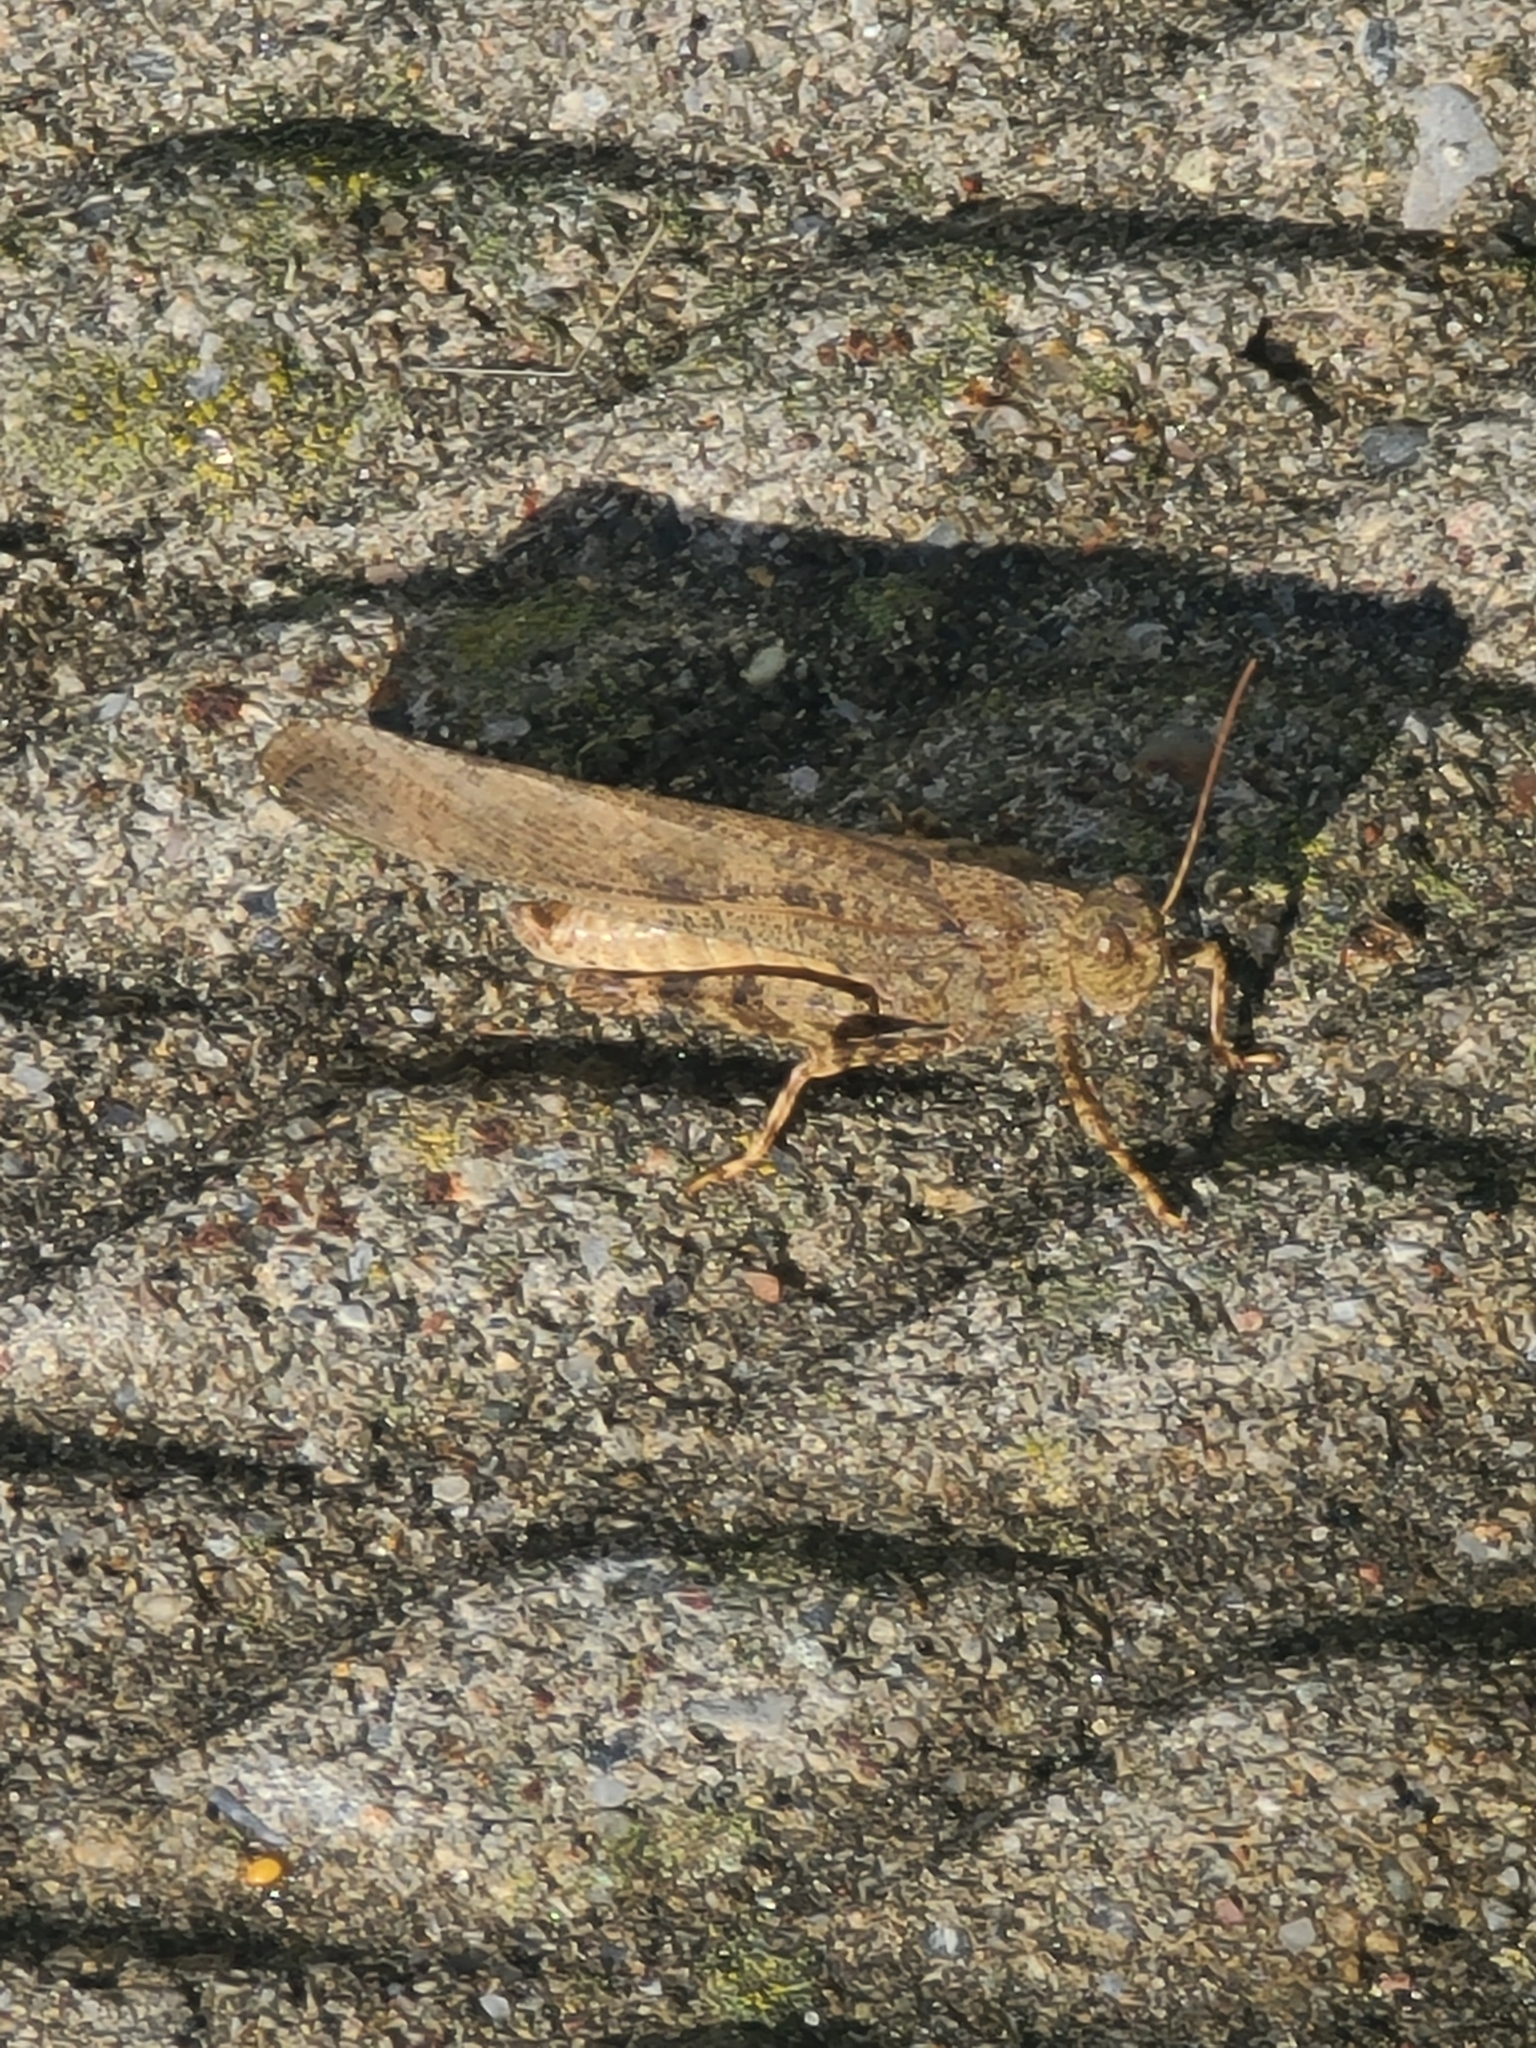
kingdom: Animalia
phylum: Arthropoda
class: Insecta
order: Orthoptera
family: Acrididae
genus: Dissosteira
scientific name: Dissosteira carolina
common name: Carolina grasshopper
